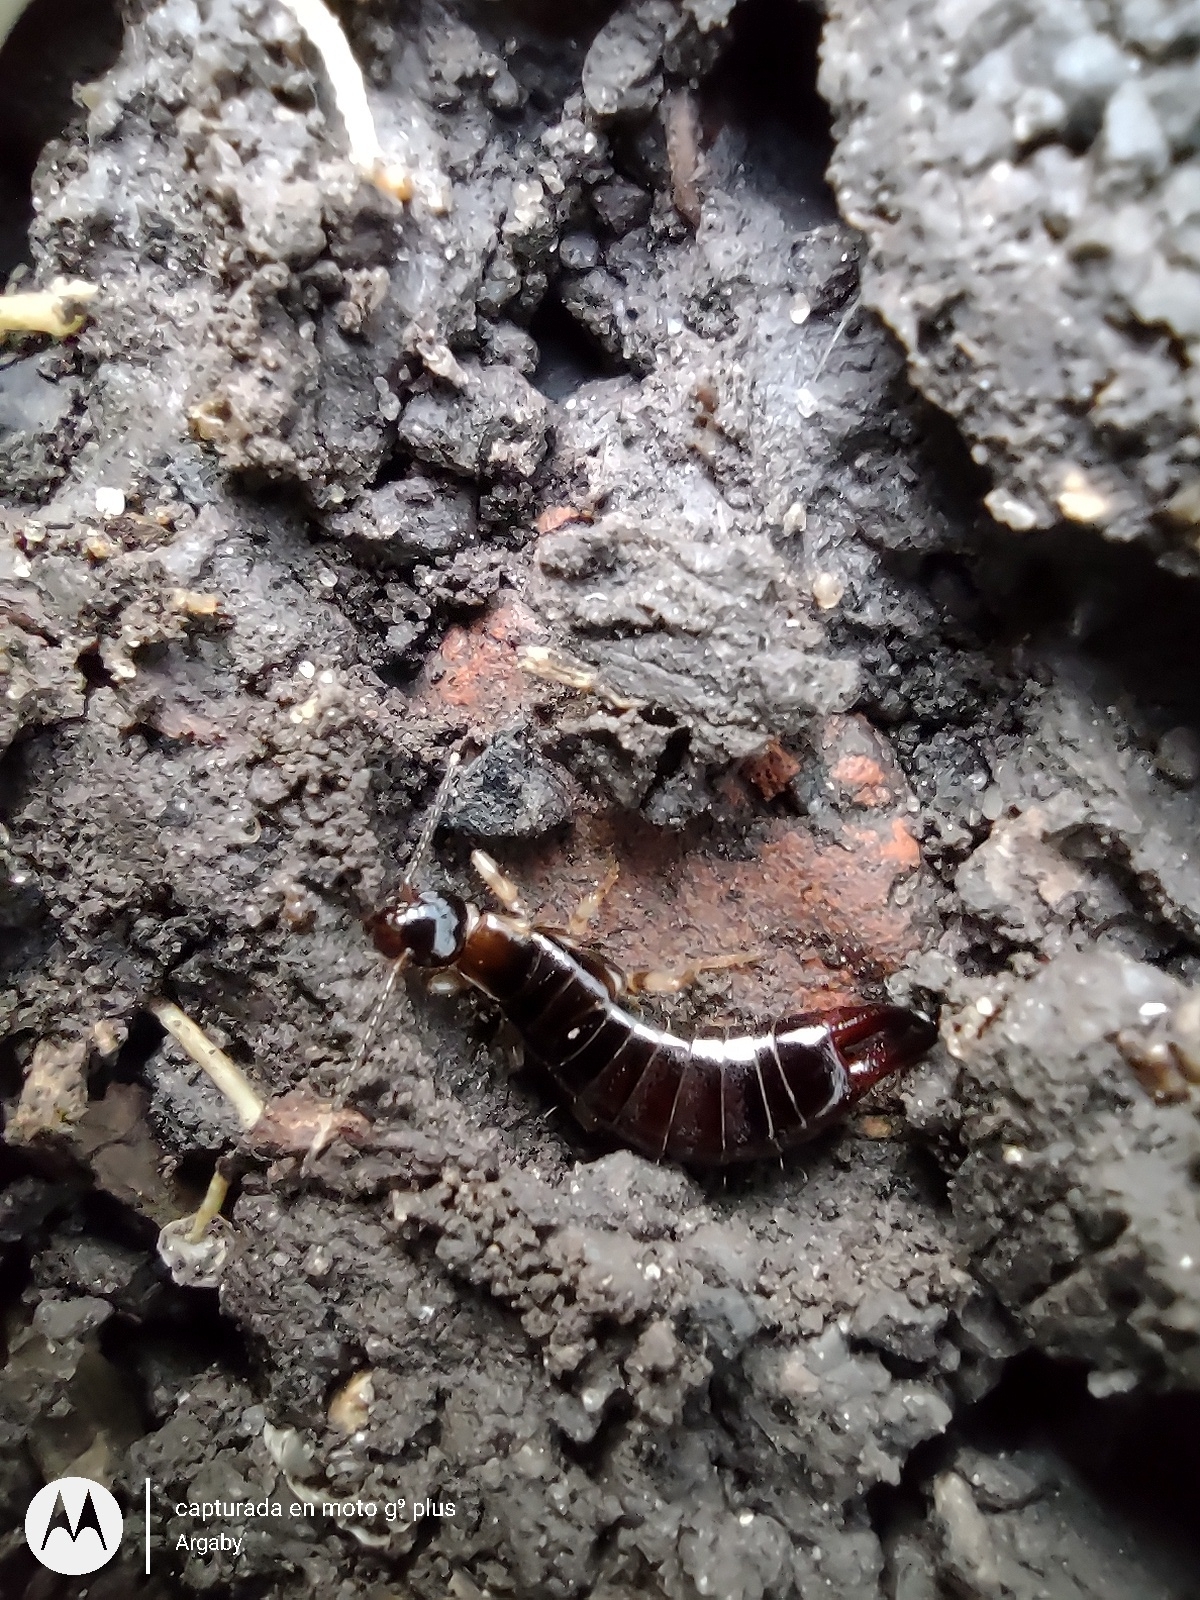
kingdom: Animalia
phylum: Arthropoda
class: Insecta
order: Dermaptera
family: Anisolabididae
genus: Euborellia
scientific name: Euborellia annulipes
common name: Ringlegged earwig
